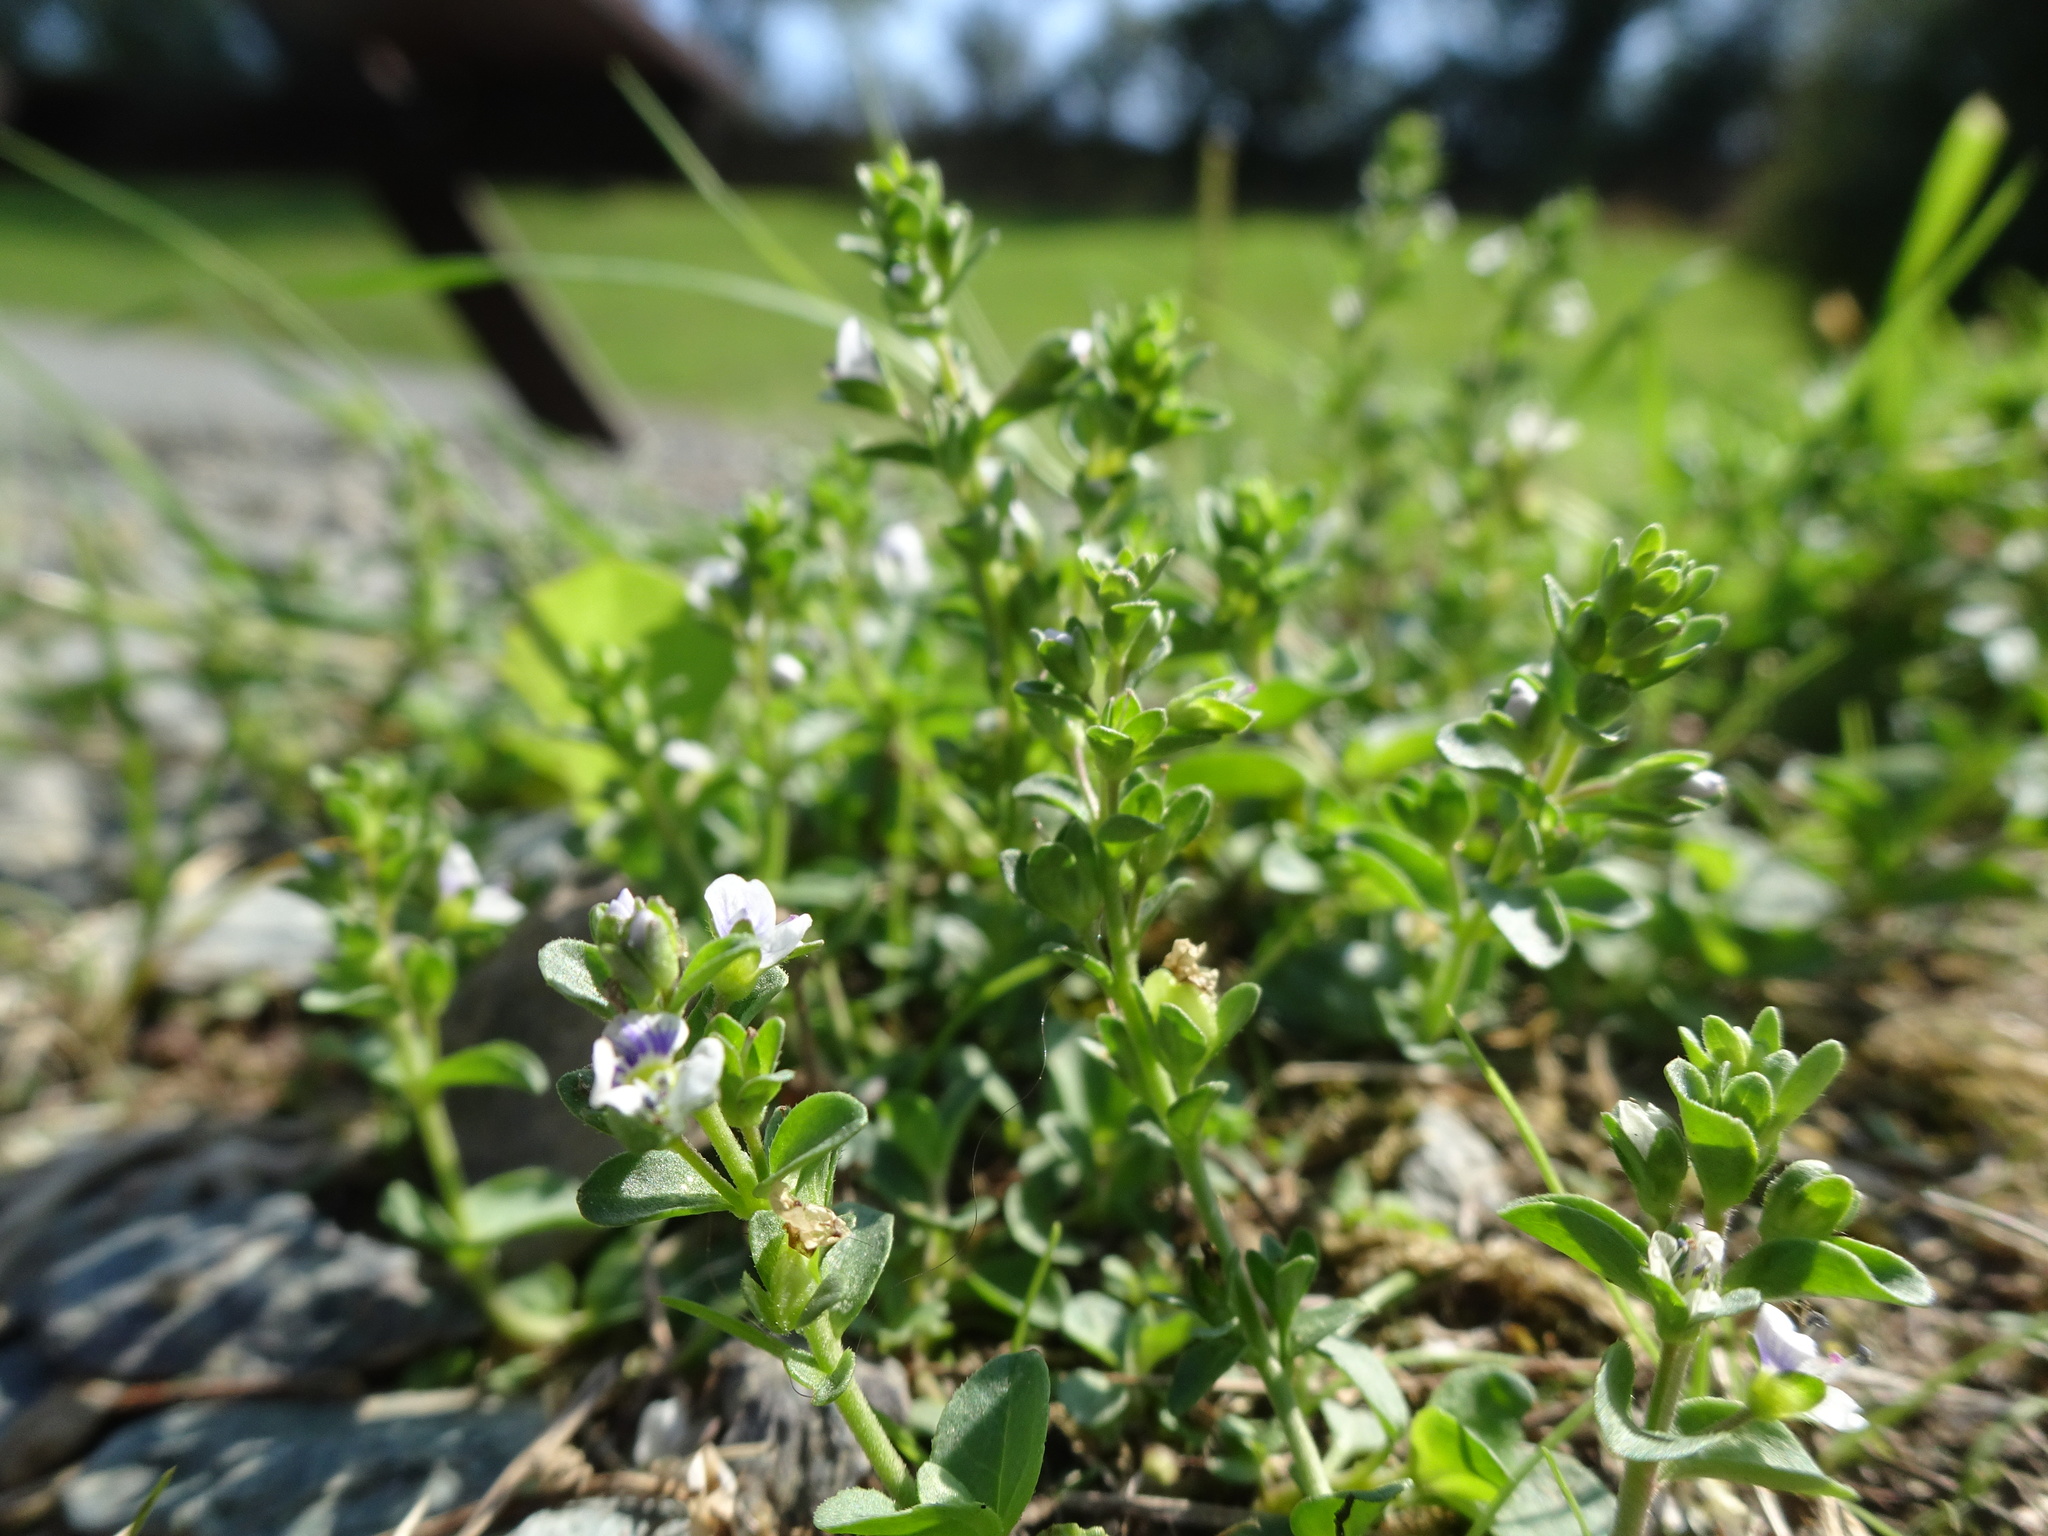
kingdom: Plantae
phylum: Tracheophyta
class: Magnoliopsida
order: Lamiales
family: Plantaginaceae
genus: Veronica
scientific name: Veronica serpyllifolia
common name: Thyme-leaved speedwell
